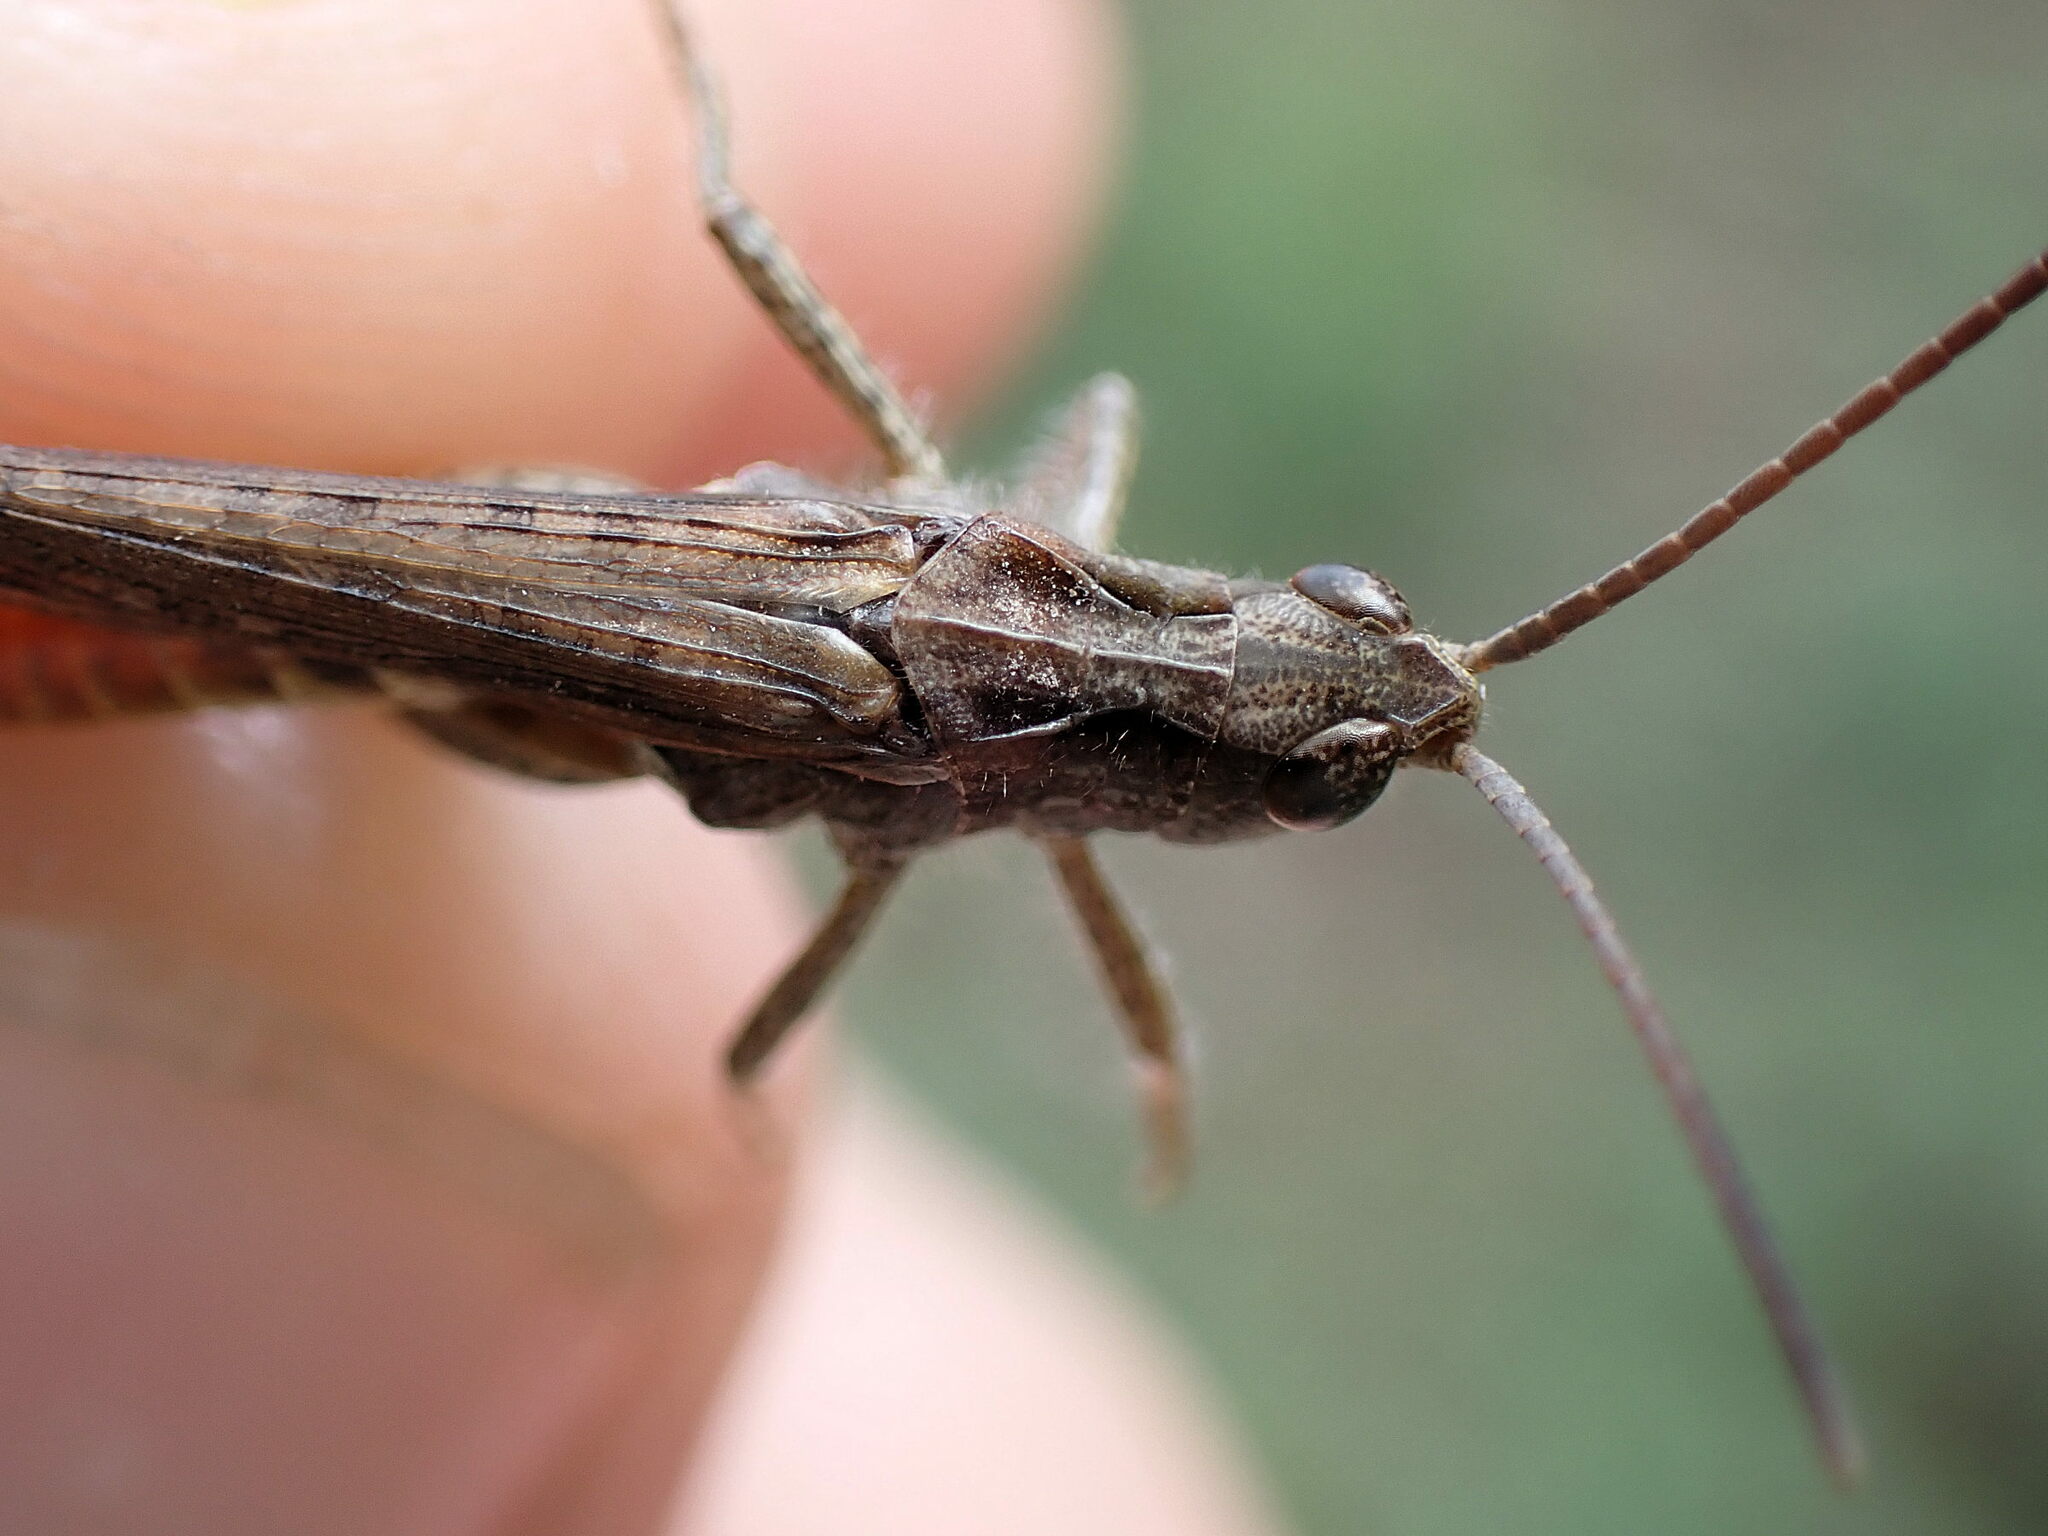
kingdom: Animalia
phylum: Arthropoda
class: Insecta
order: Orthoptera
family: Acrididae
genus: Chorthippus
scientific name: Chorthippus brunneus
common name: Field grasshopper
